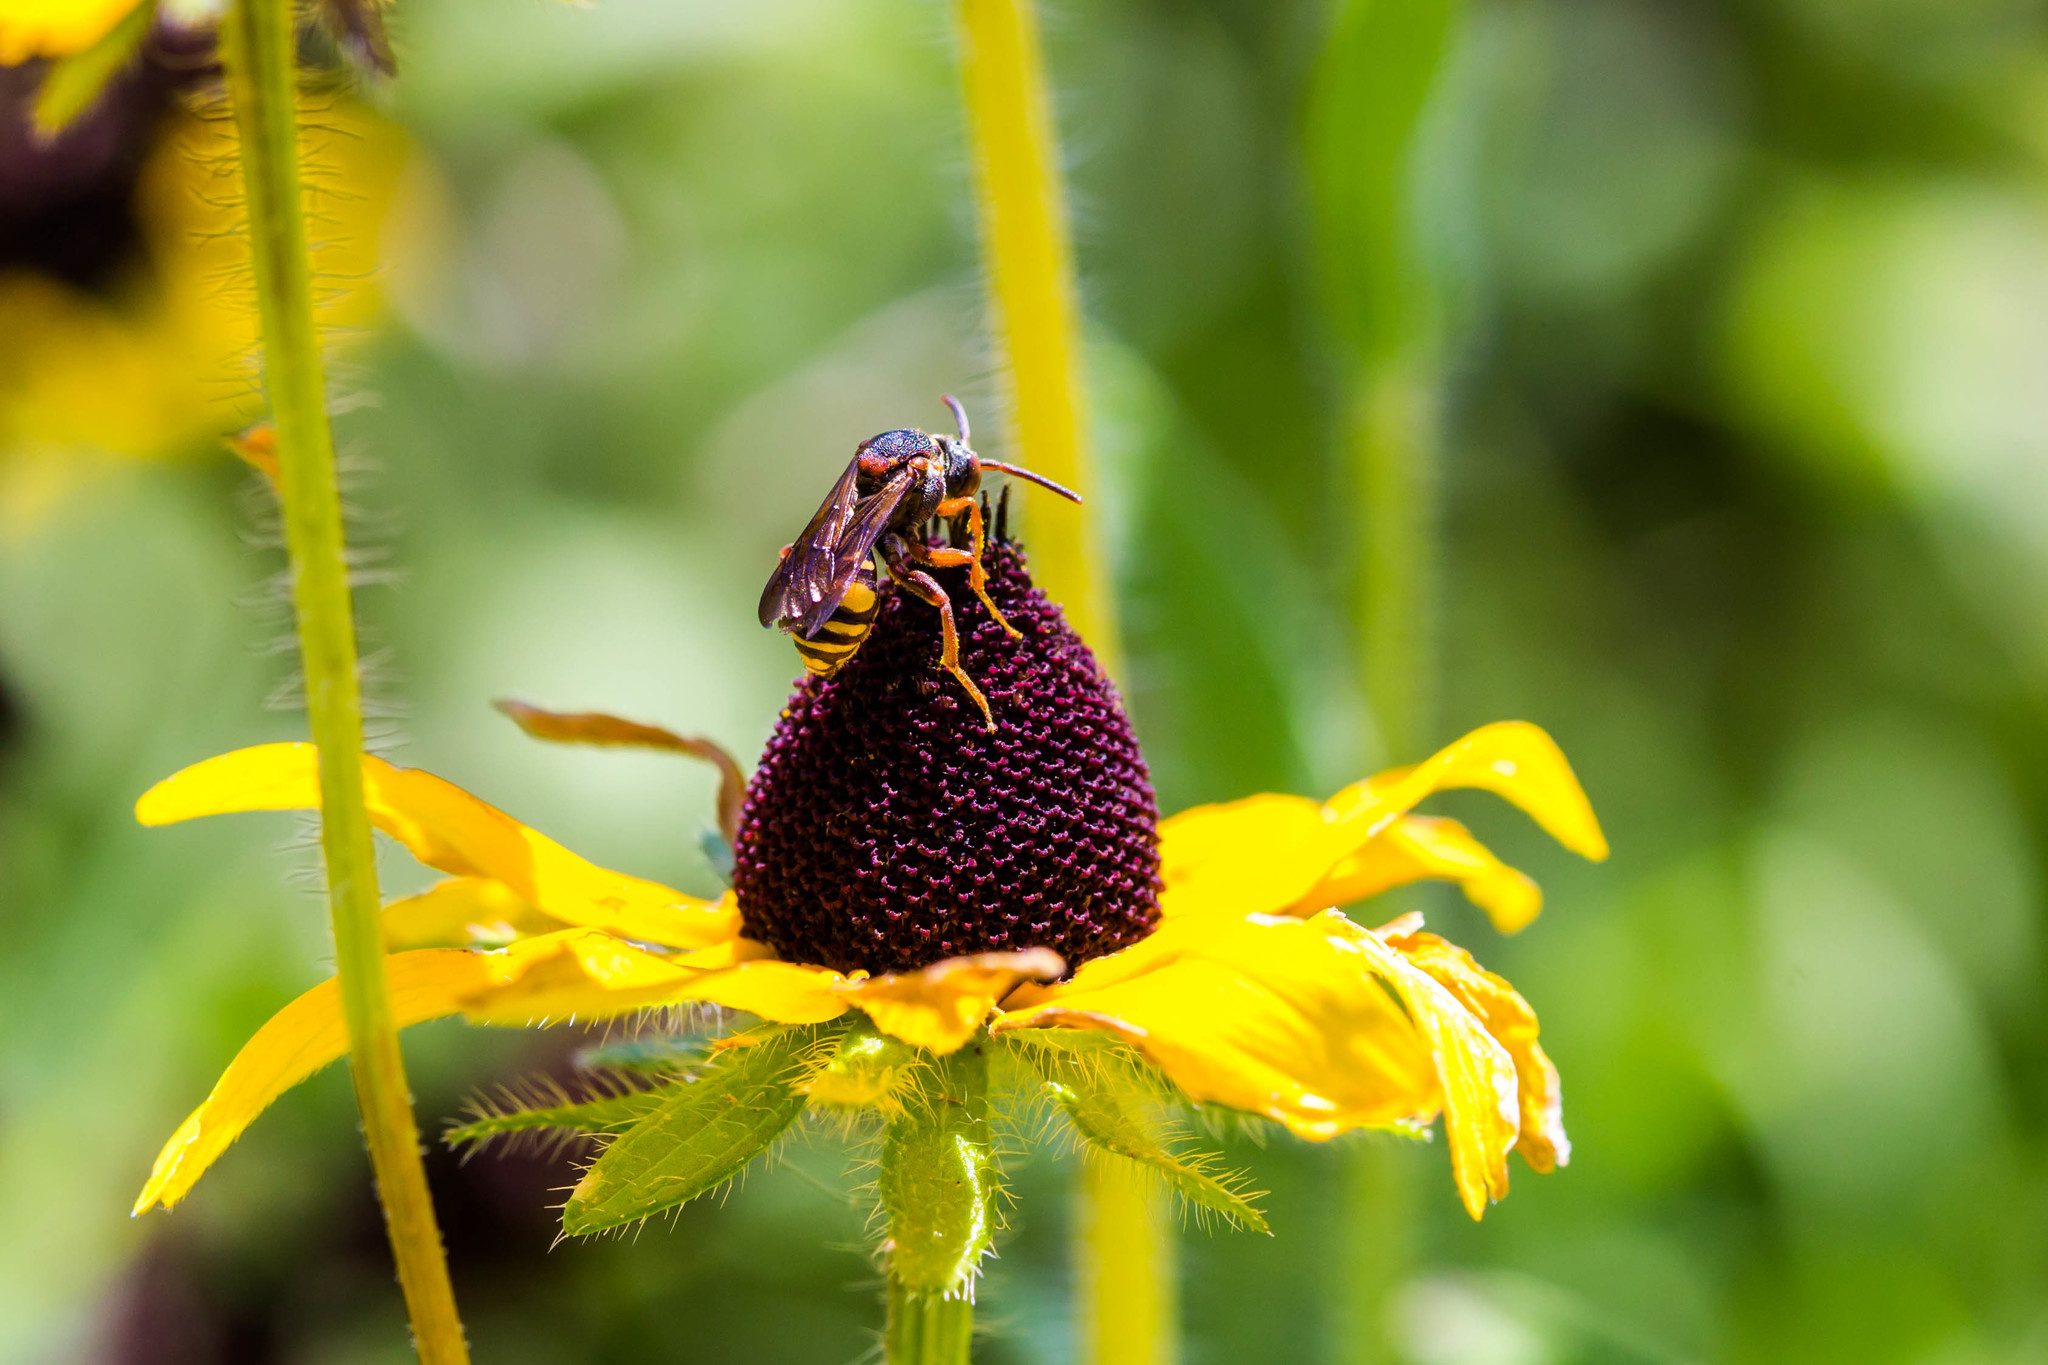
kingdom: Animalia
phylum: Arthropoda
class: Insecta
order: Hymenoptera
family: Apidae
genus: Nomada
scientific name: Nomada erigeronis
